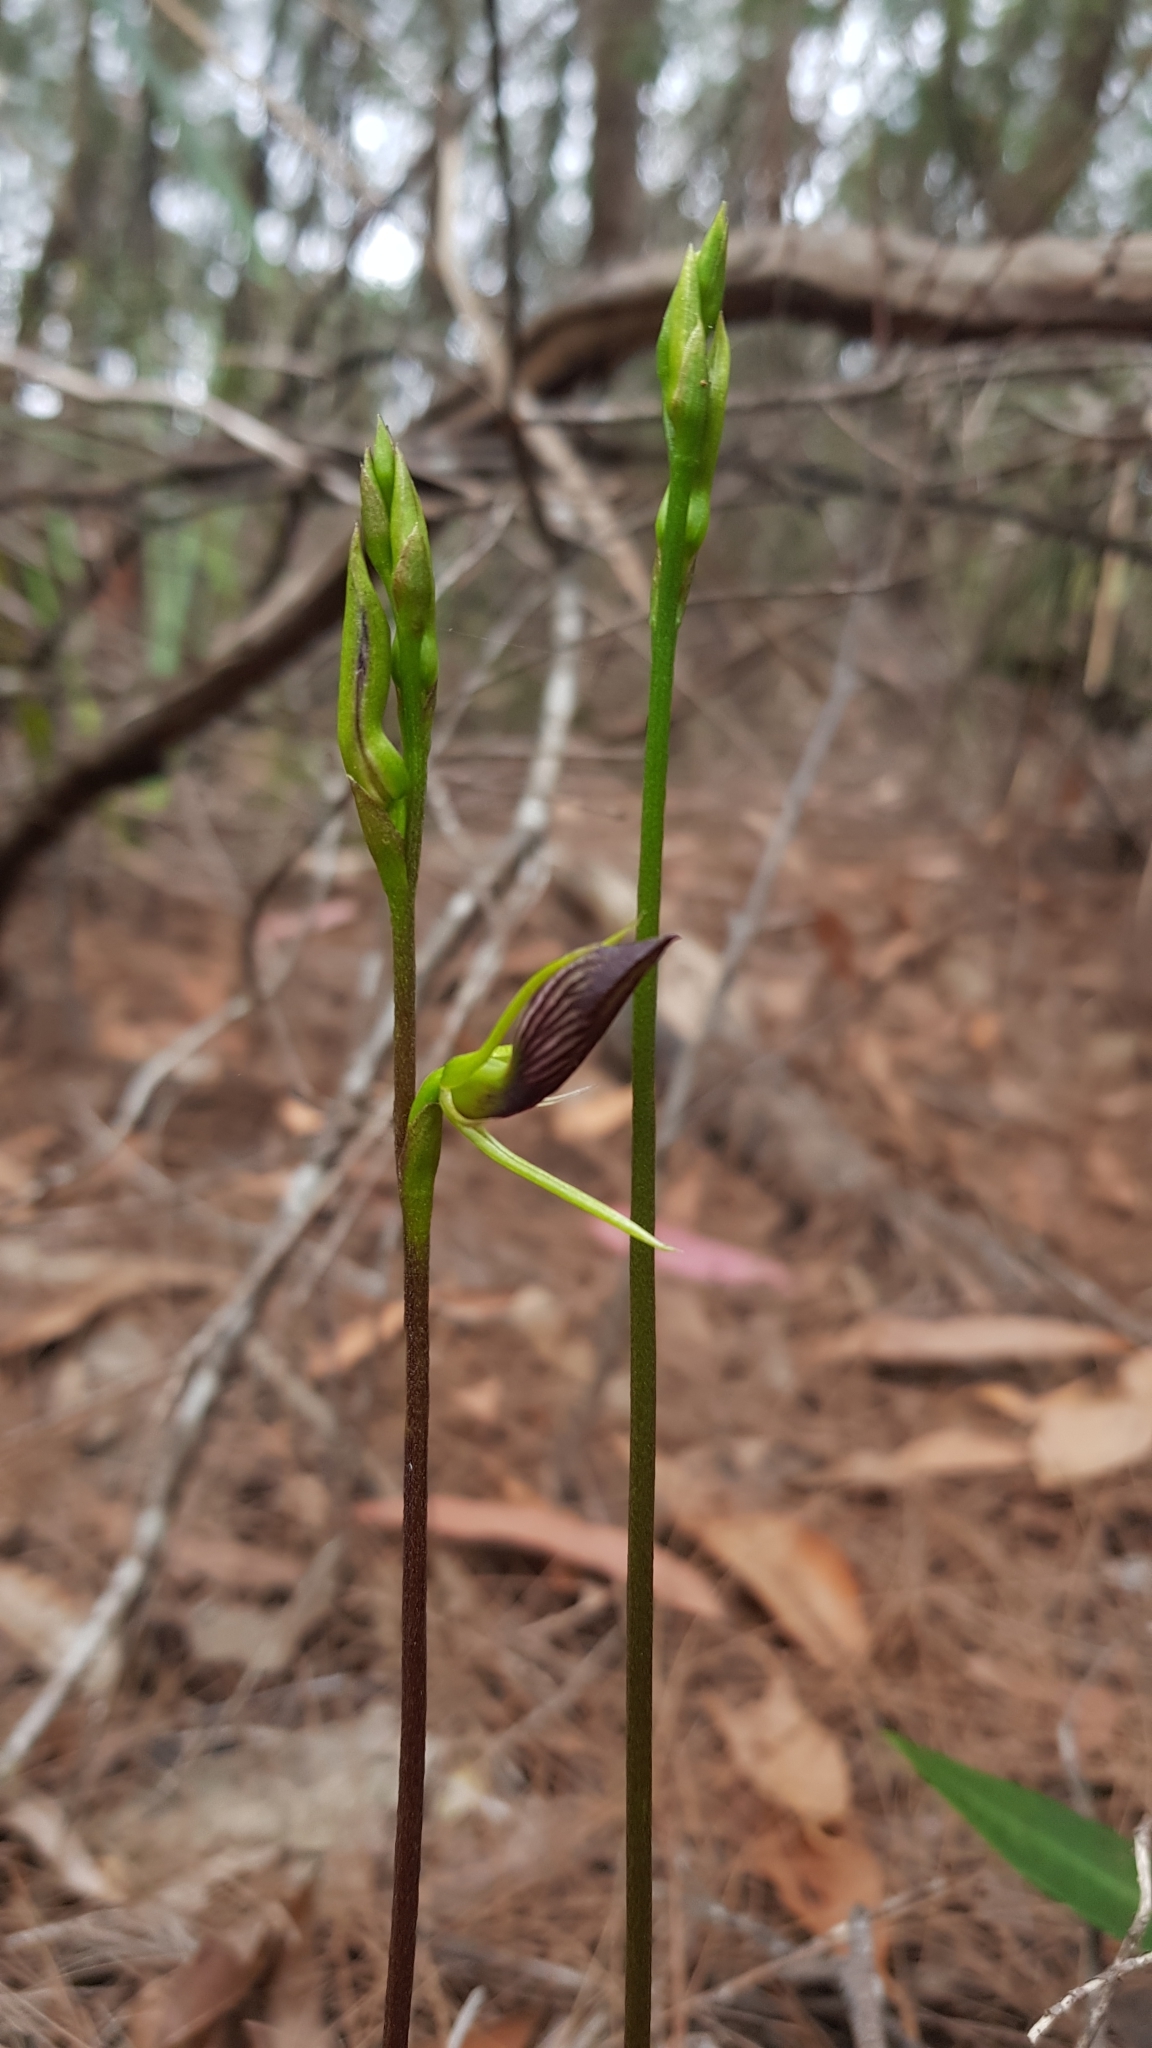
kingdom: Plantae
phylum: Tracheophyta
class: Liliopsida
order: Asparagales
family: Orchidaceae
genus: Cryptostylis
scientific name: Cryptostylis erecta
